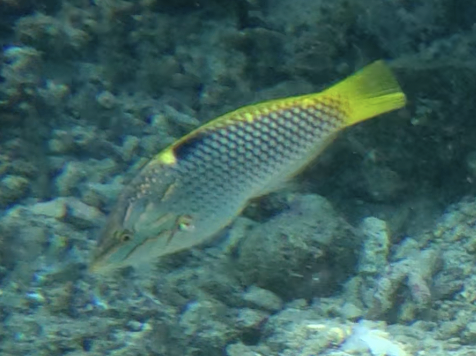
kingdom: Animalia
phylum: Chordata
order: Perciformes
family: Labridae
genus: Halichoeres
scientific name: Halichoeres hortulanus
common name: Checkerboard wrasse
